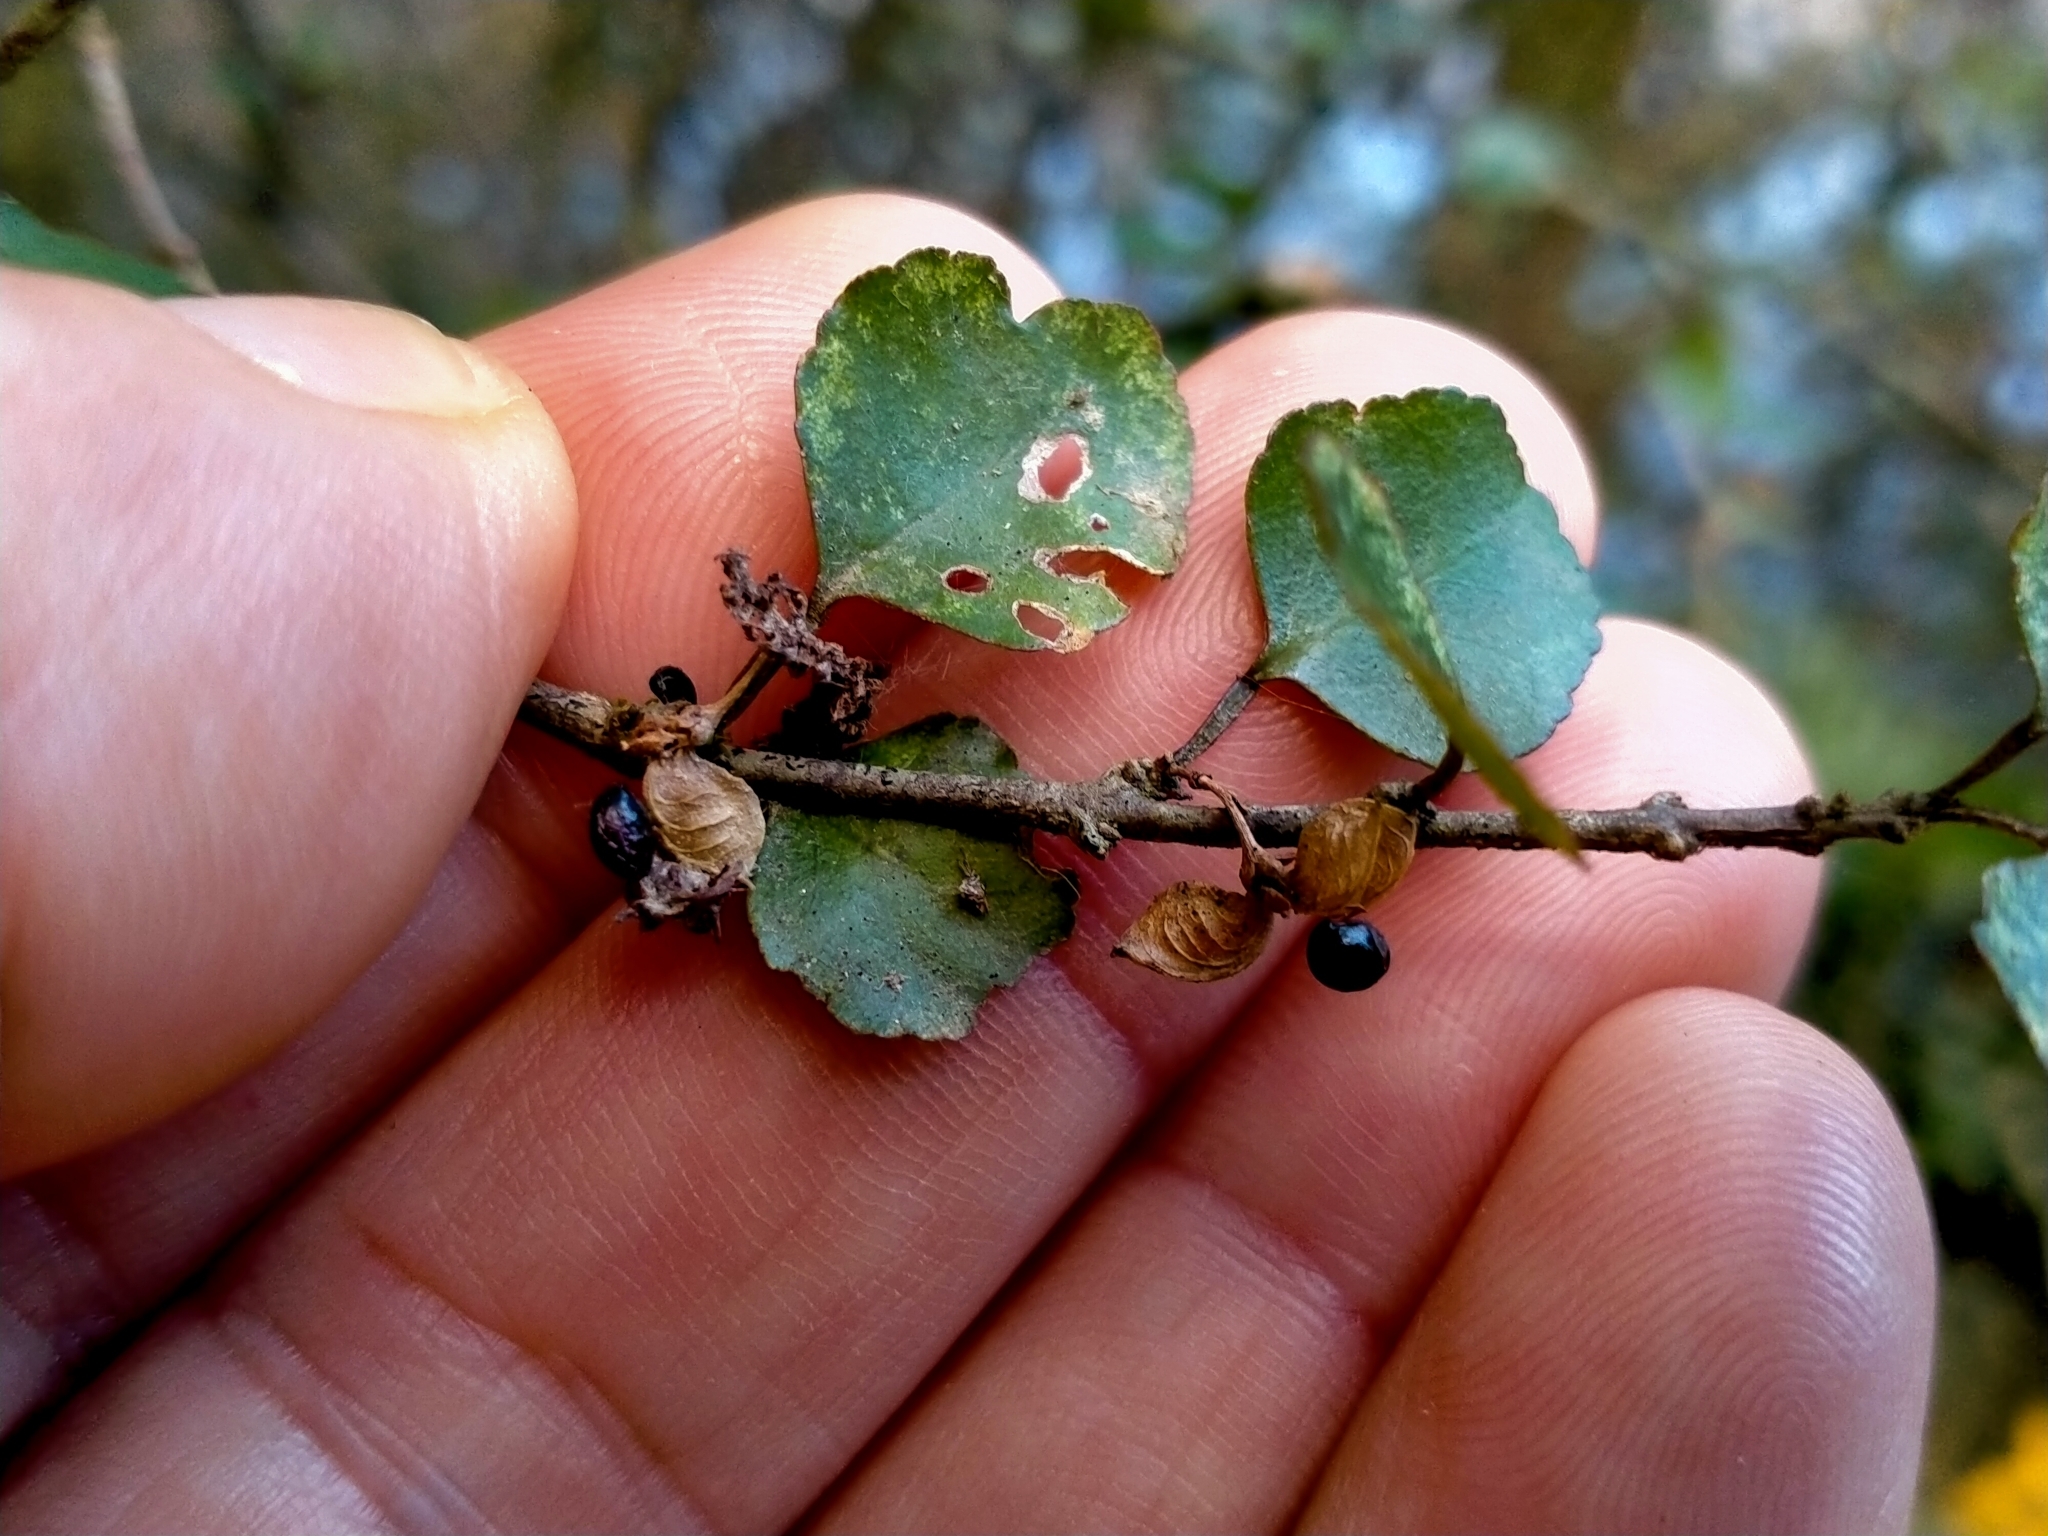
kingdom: Plantae
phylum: Tracheophyta
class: Magnoliopsida
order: Sapindales
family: Rutaceae
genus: Melicope
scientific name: Melicope simplex
